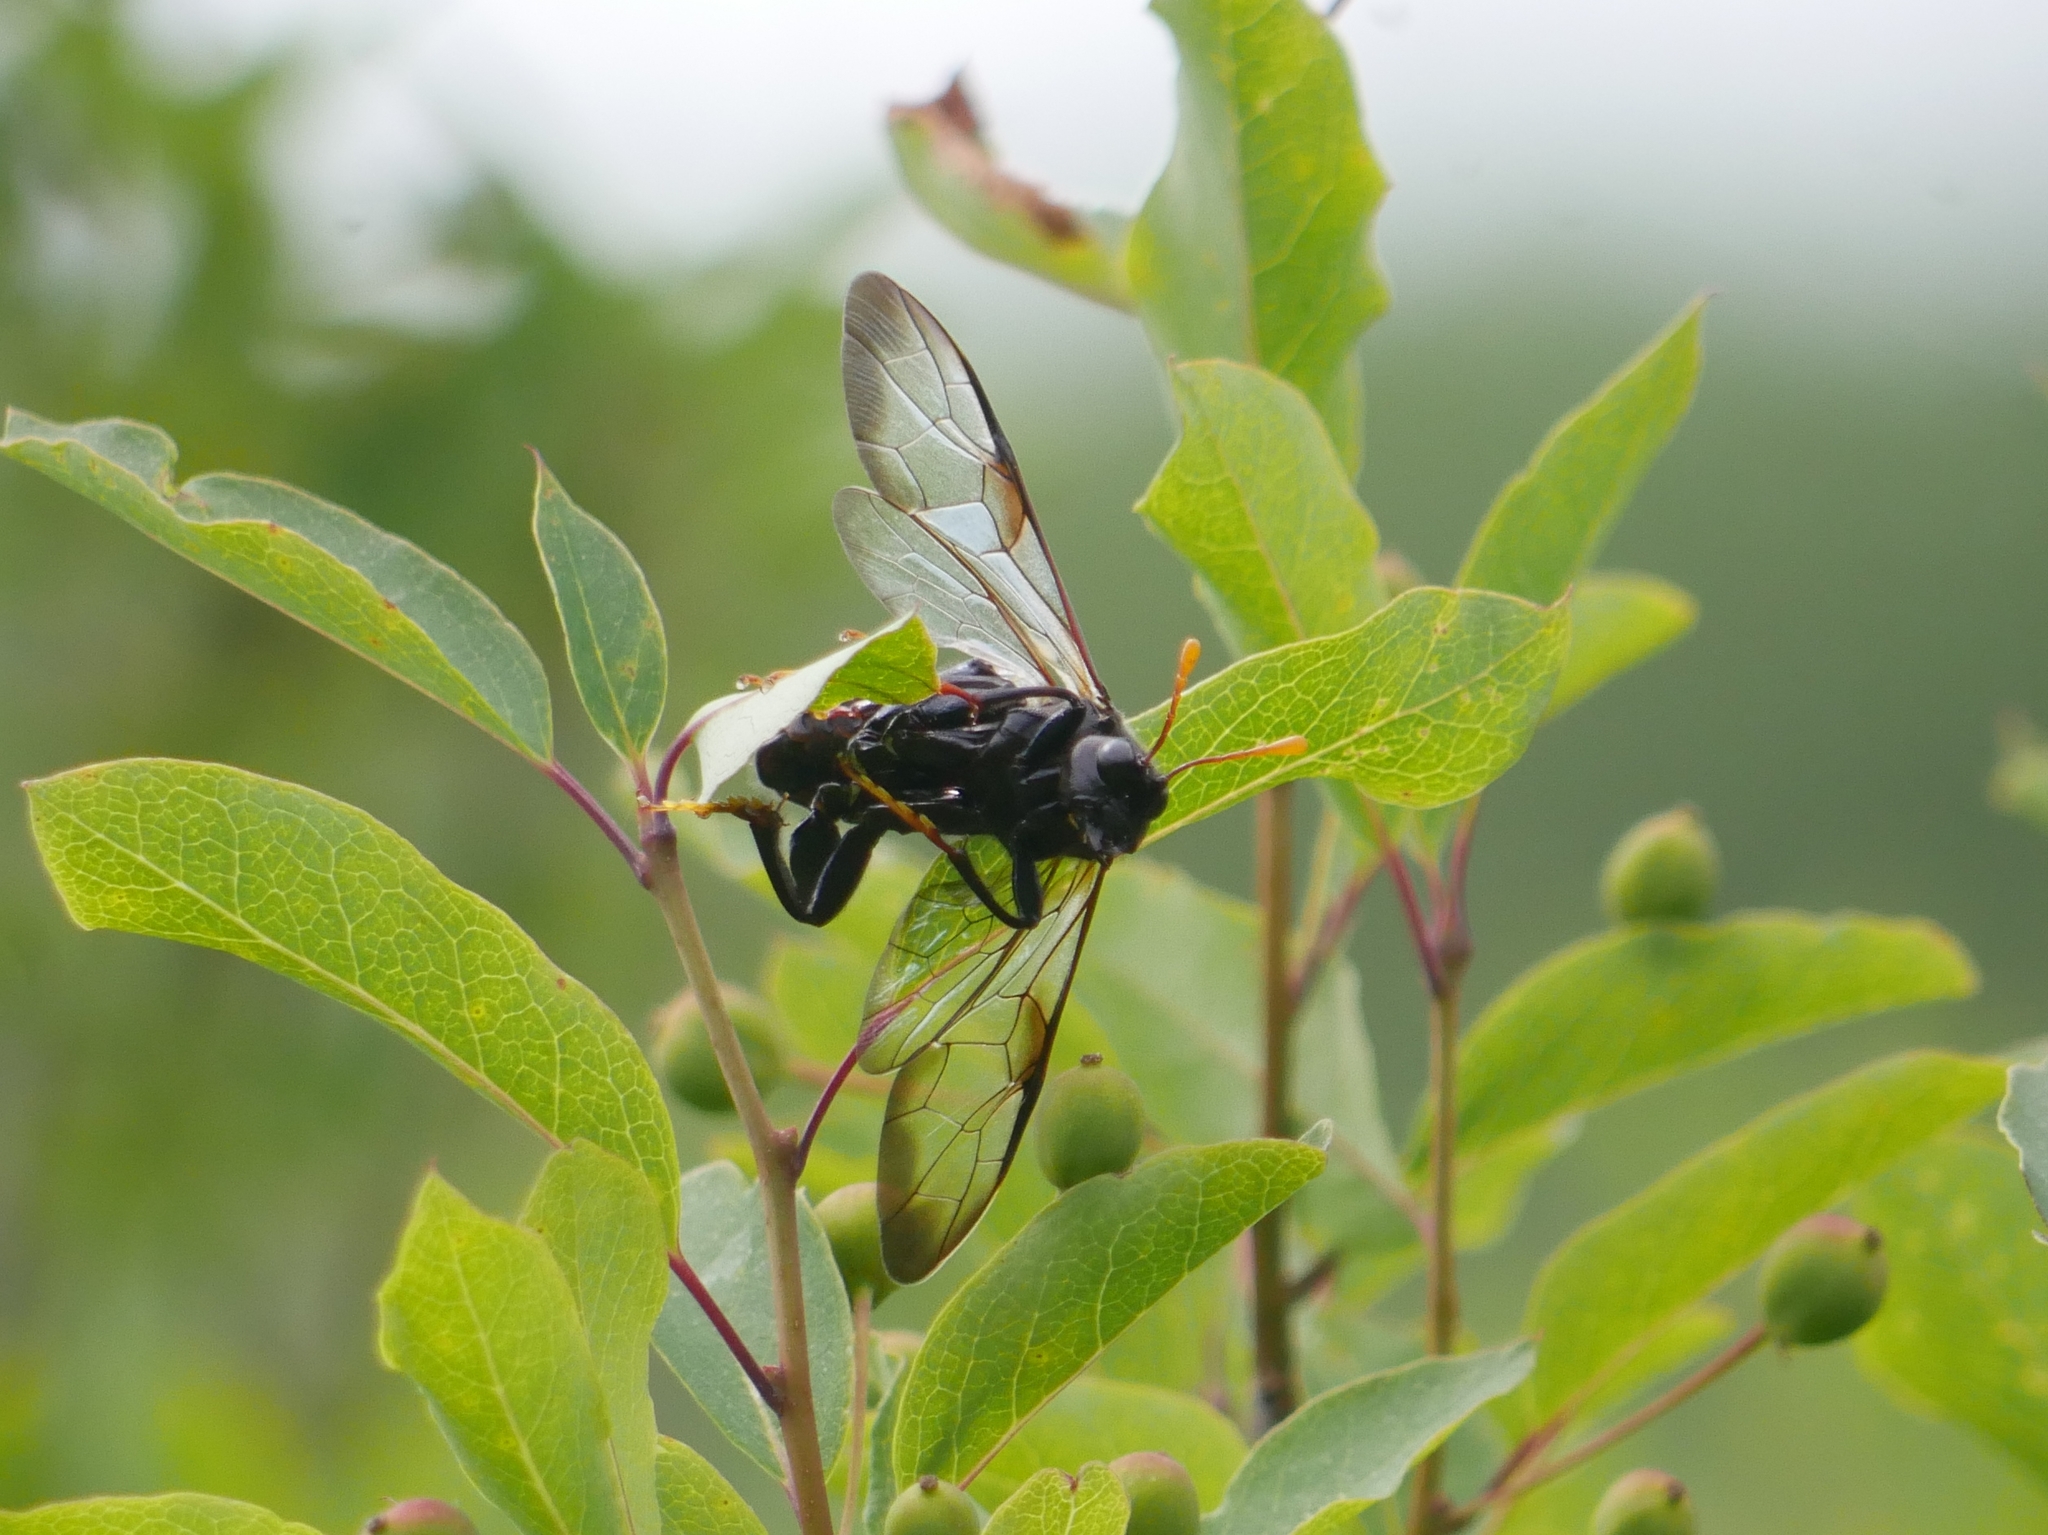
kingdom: Animalia
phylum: Arthropoda
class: Insecta
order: Hymenoptera
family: Cimbicidae
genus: Cimbex
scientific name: Cimbex americana
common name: Elm sawfly
